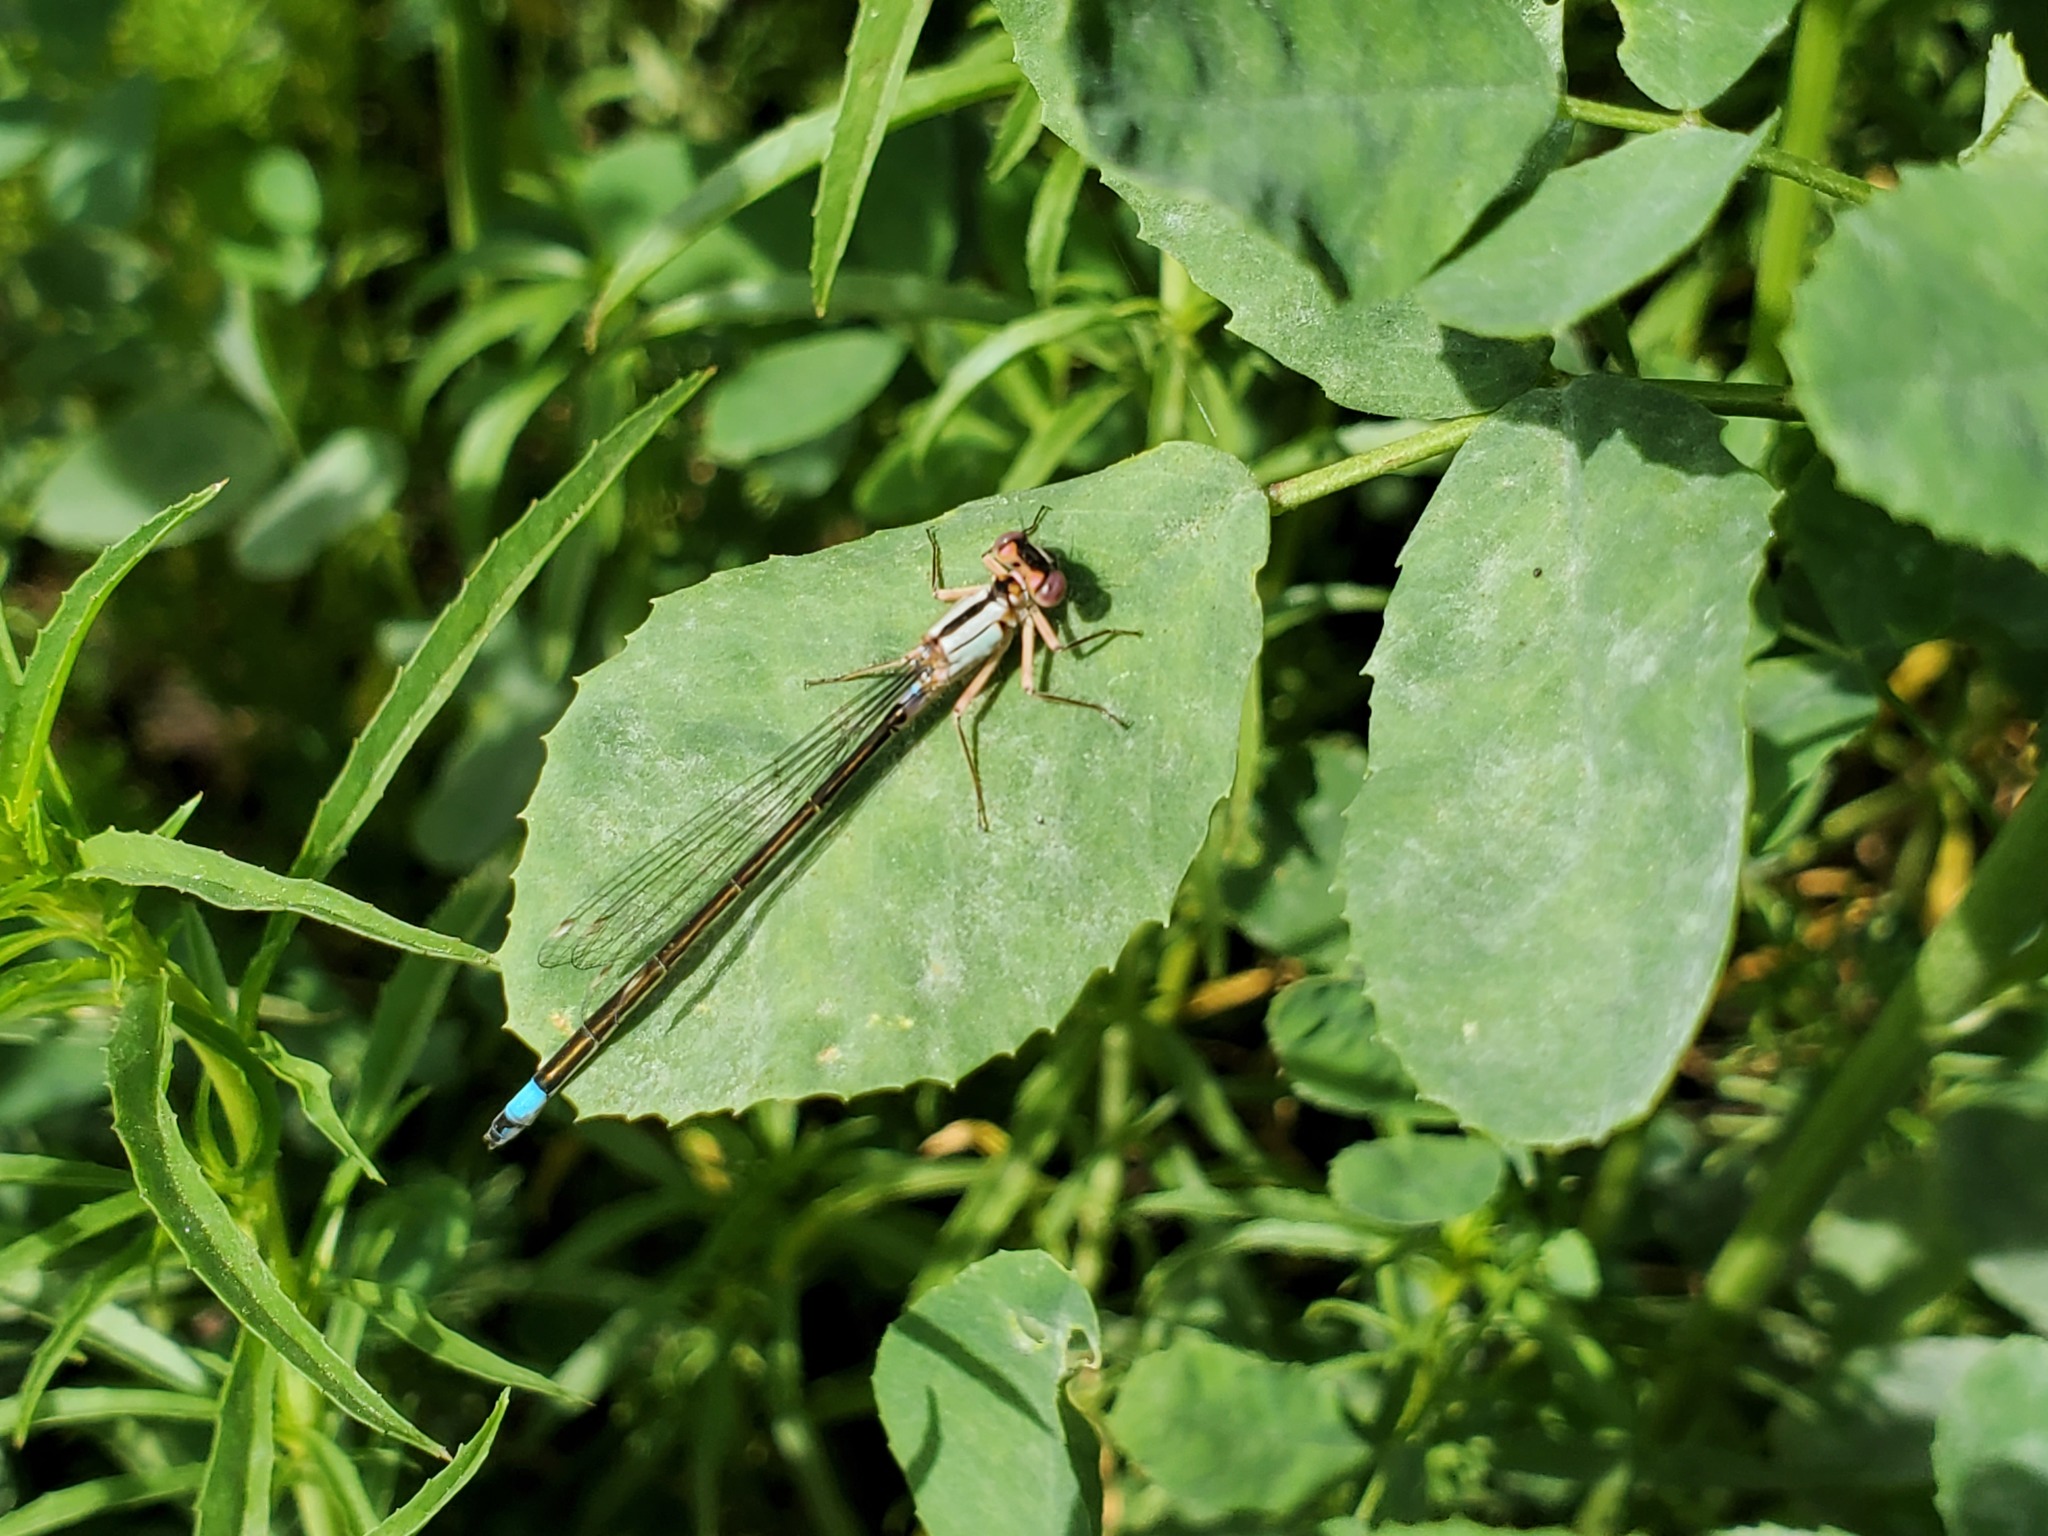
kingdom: Animalia
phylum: Arthropoda
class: Insecta
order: Odonata
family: Coenagrionidae
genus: Ischnura
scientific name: Ischnura cervula
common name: Pacific forktail
